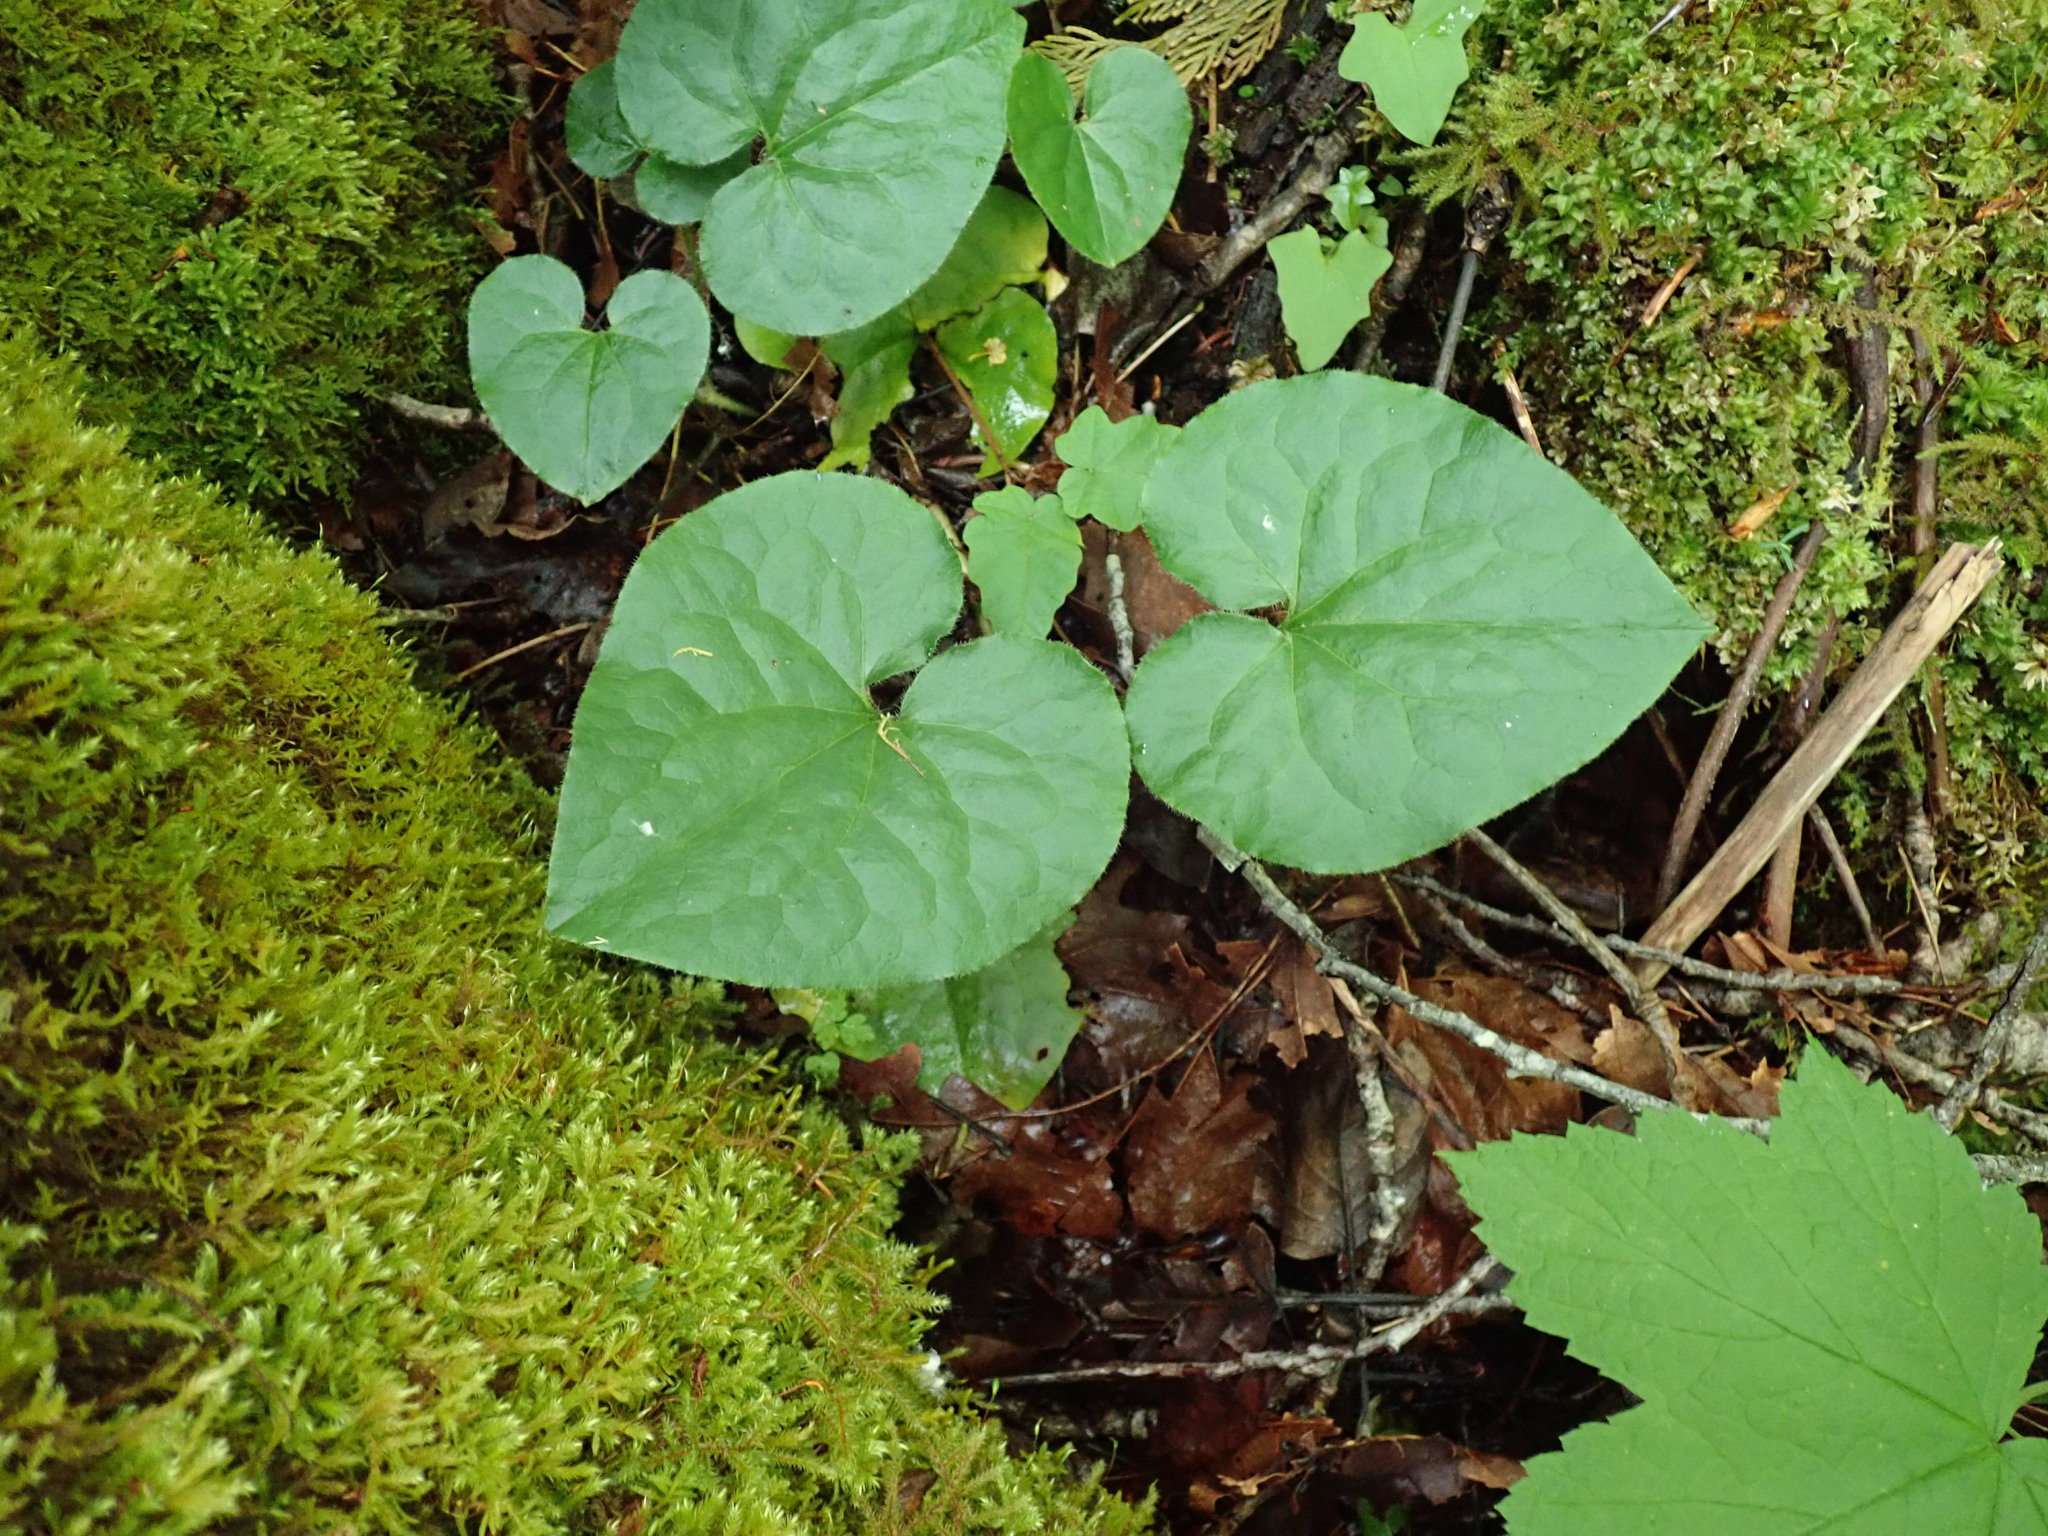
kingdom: Plantae
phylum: Tracheophyta
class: Magnoliopsida
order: Piperales
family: Aristolochiaceae
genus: Asarum
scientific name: Asarum caudatum
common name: Wild ginger
